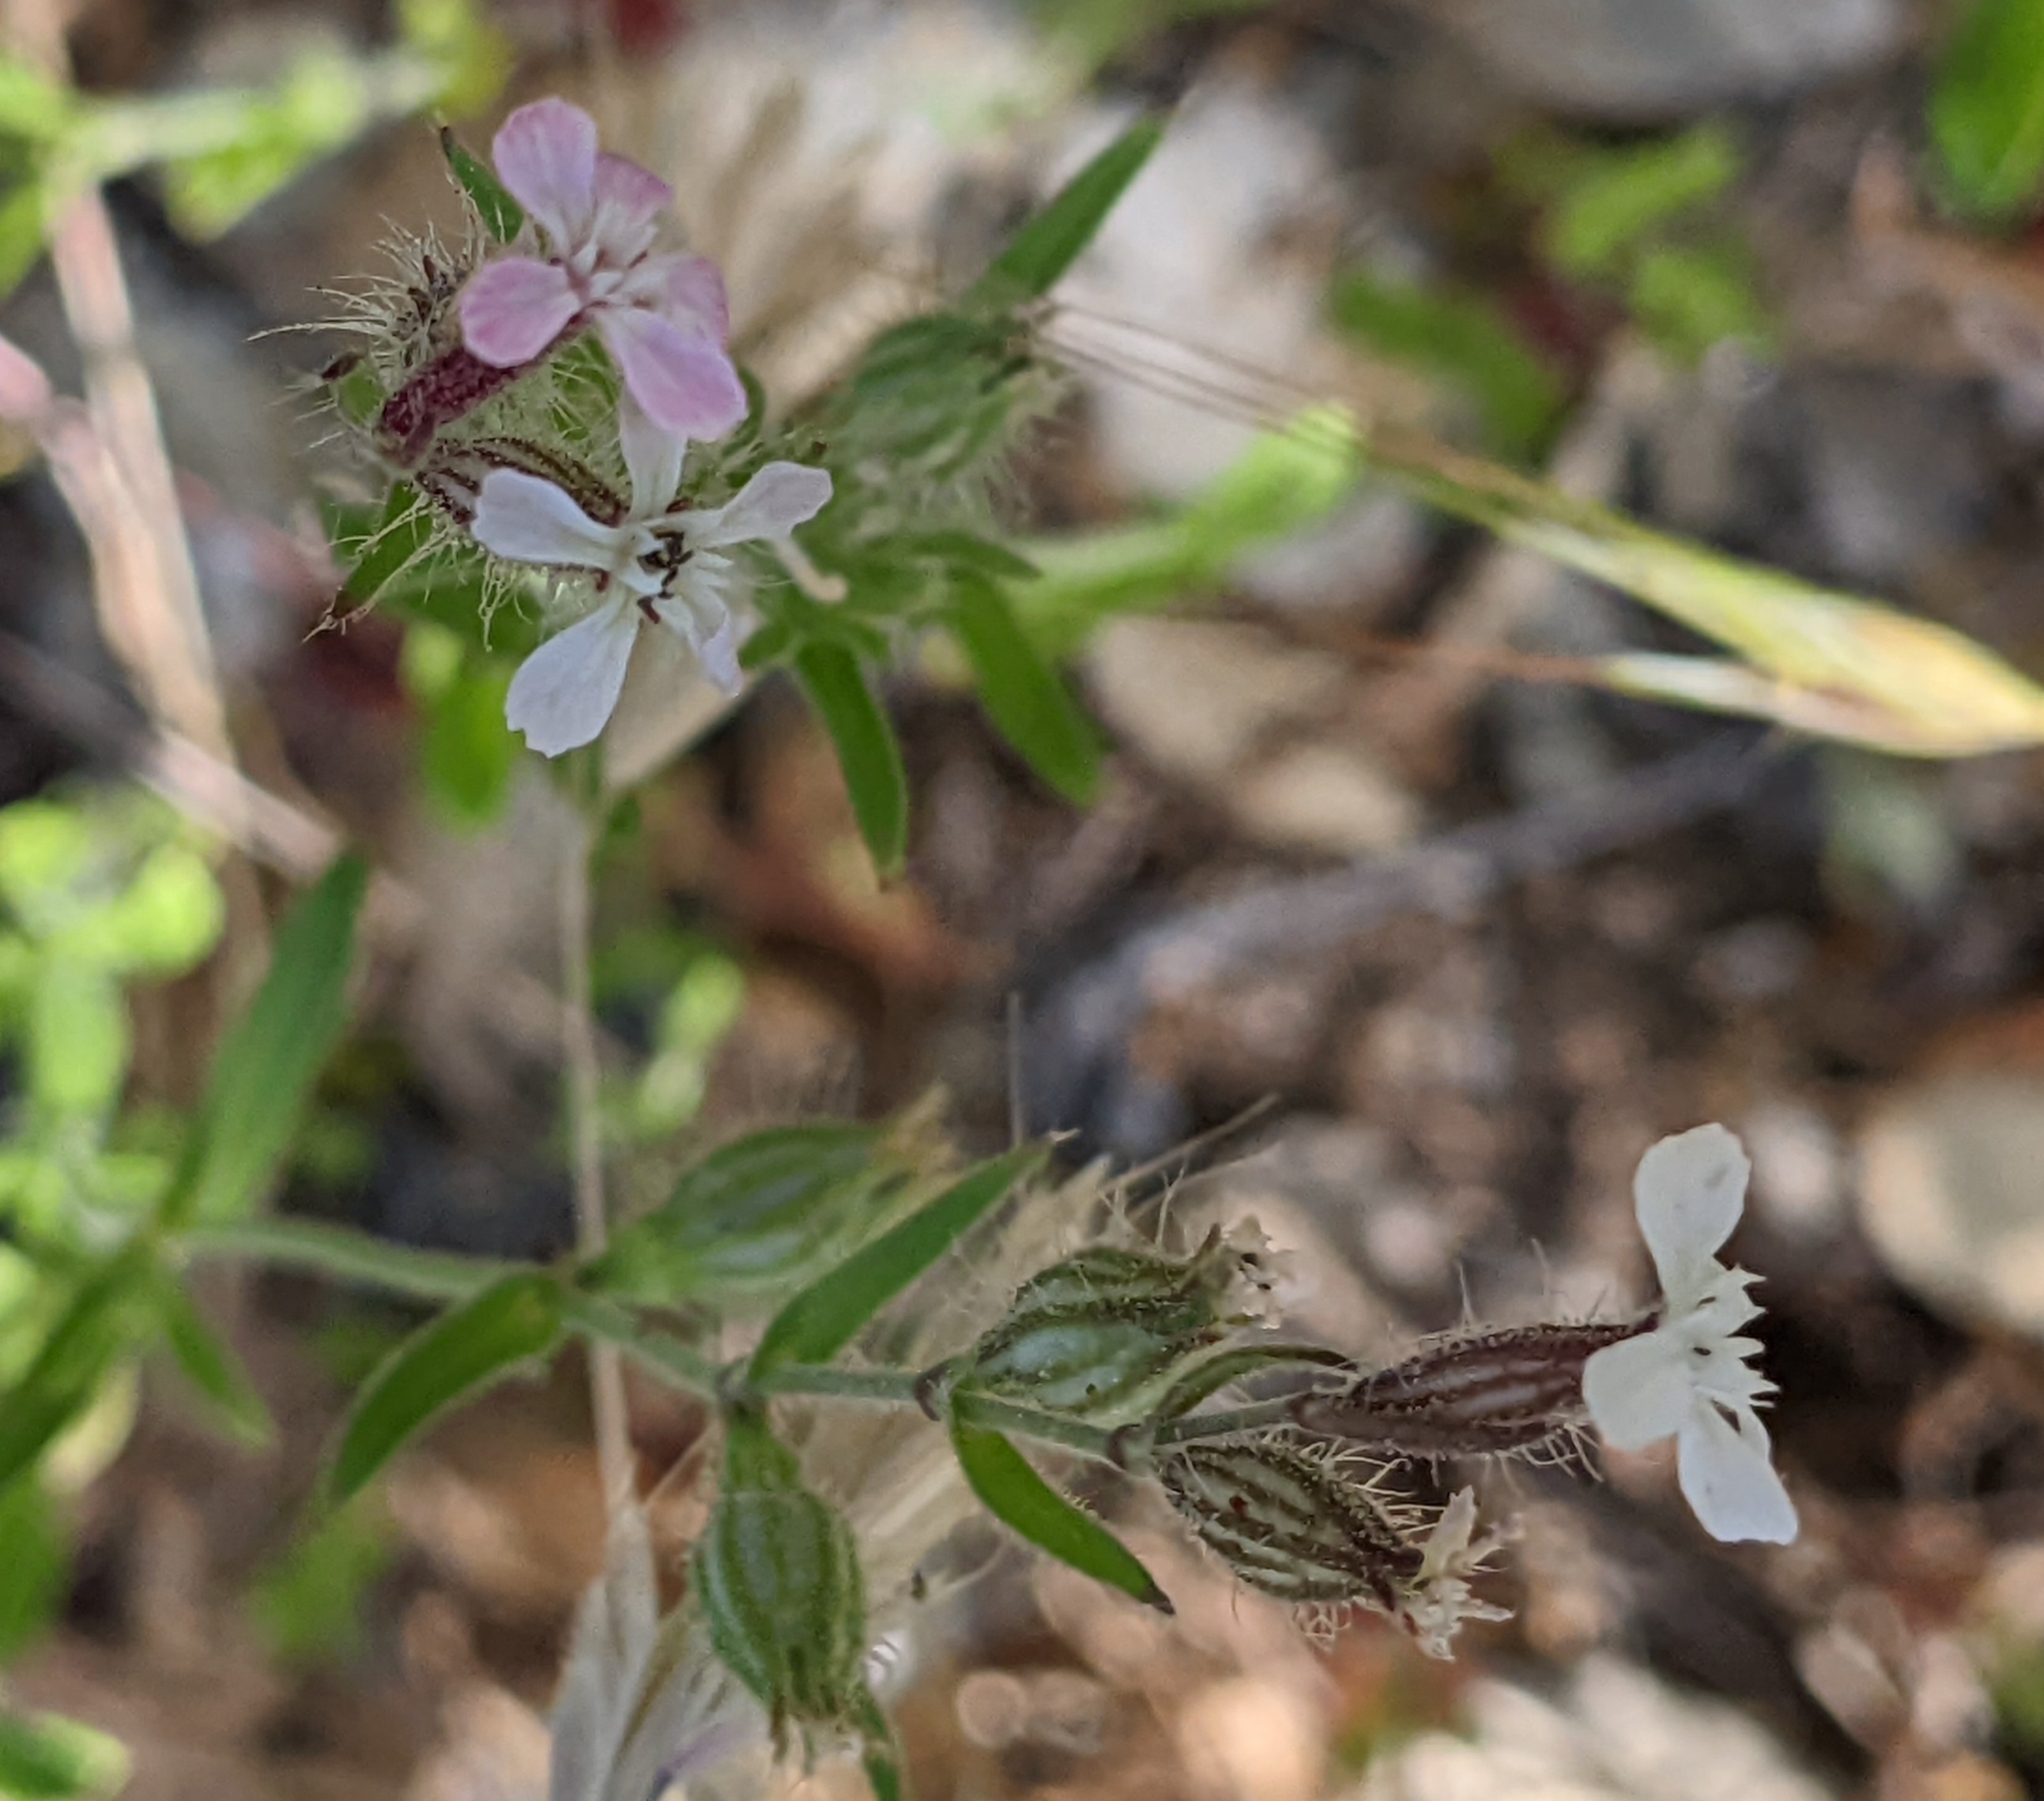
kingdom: Plantae
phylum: Tracheophyta
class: Magnoliopsida
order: Caryophyllales
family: Caryophyllaceae
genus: Silene
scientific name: Silene gallica
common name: Small-flowered catchfly
